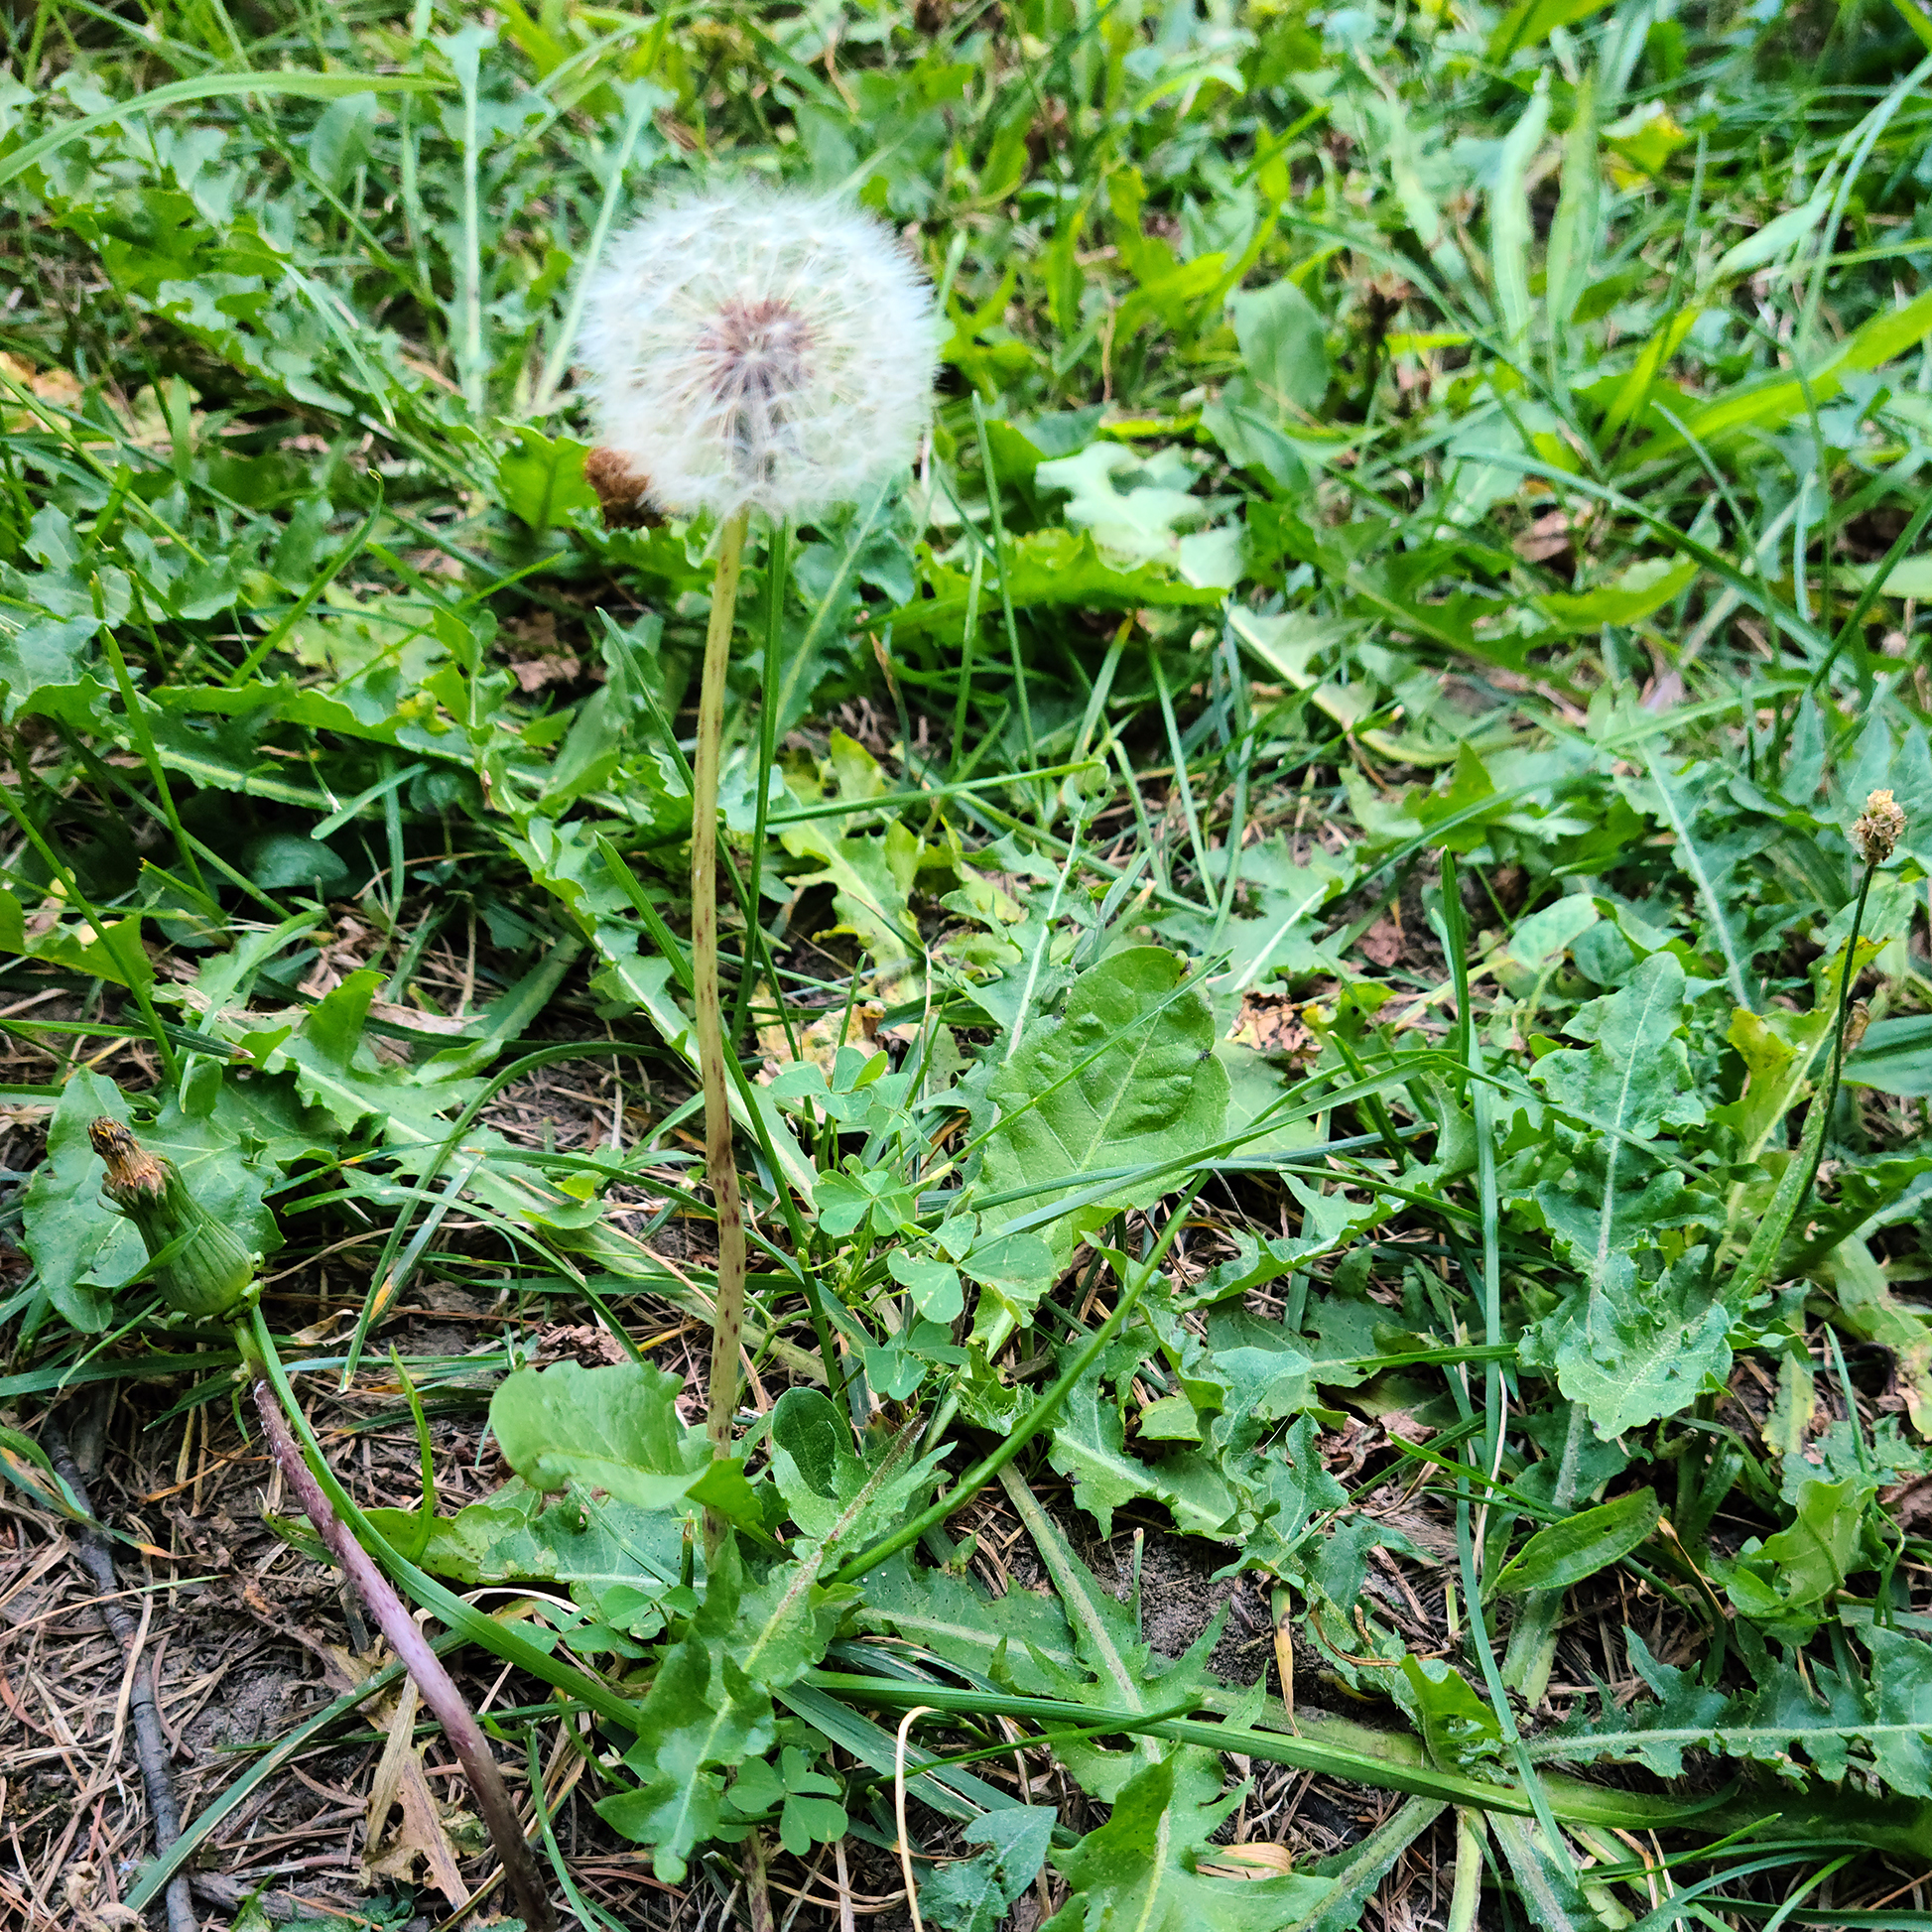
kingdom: Plantae
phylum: Tracheophyta
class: Magnoliopsida
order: Asterales
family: Asteraceae
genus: Taraxacum
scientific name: Taraxacum officinale
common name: Common dandelion
